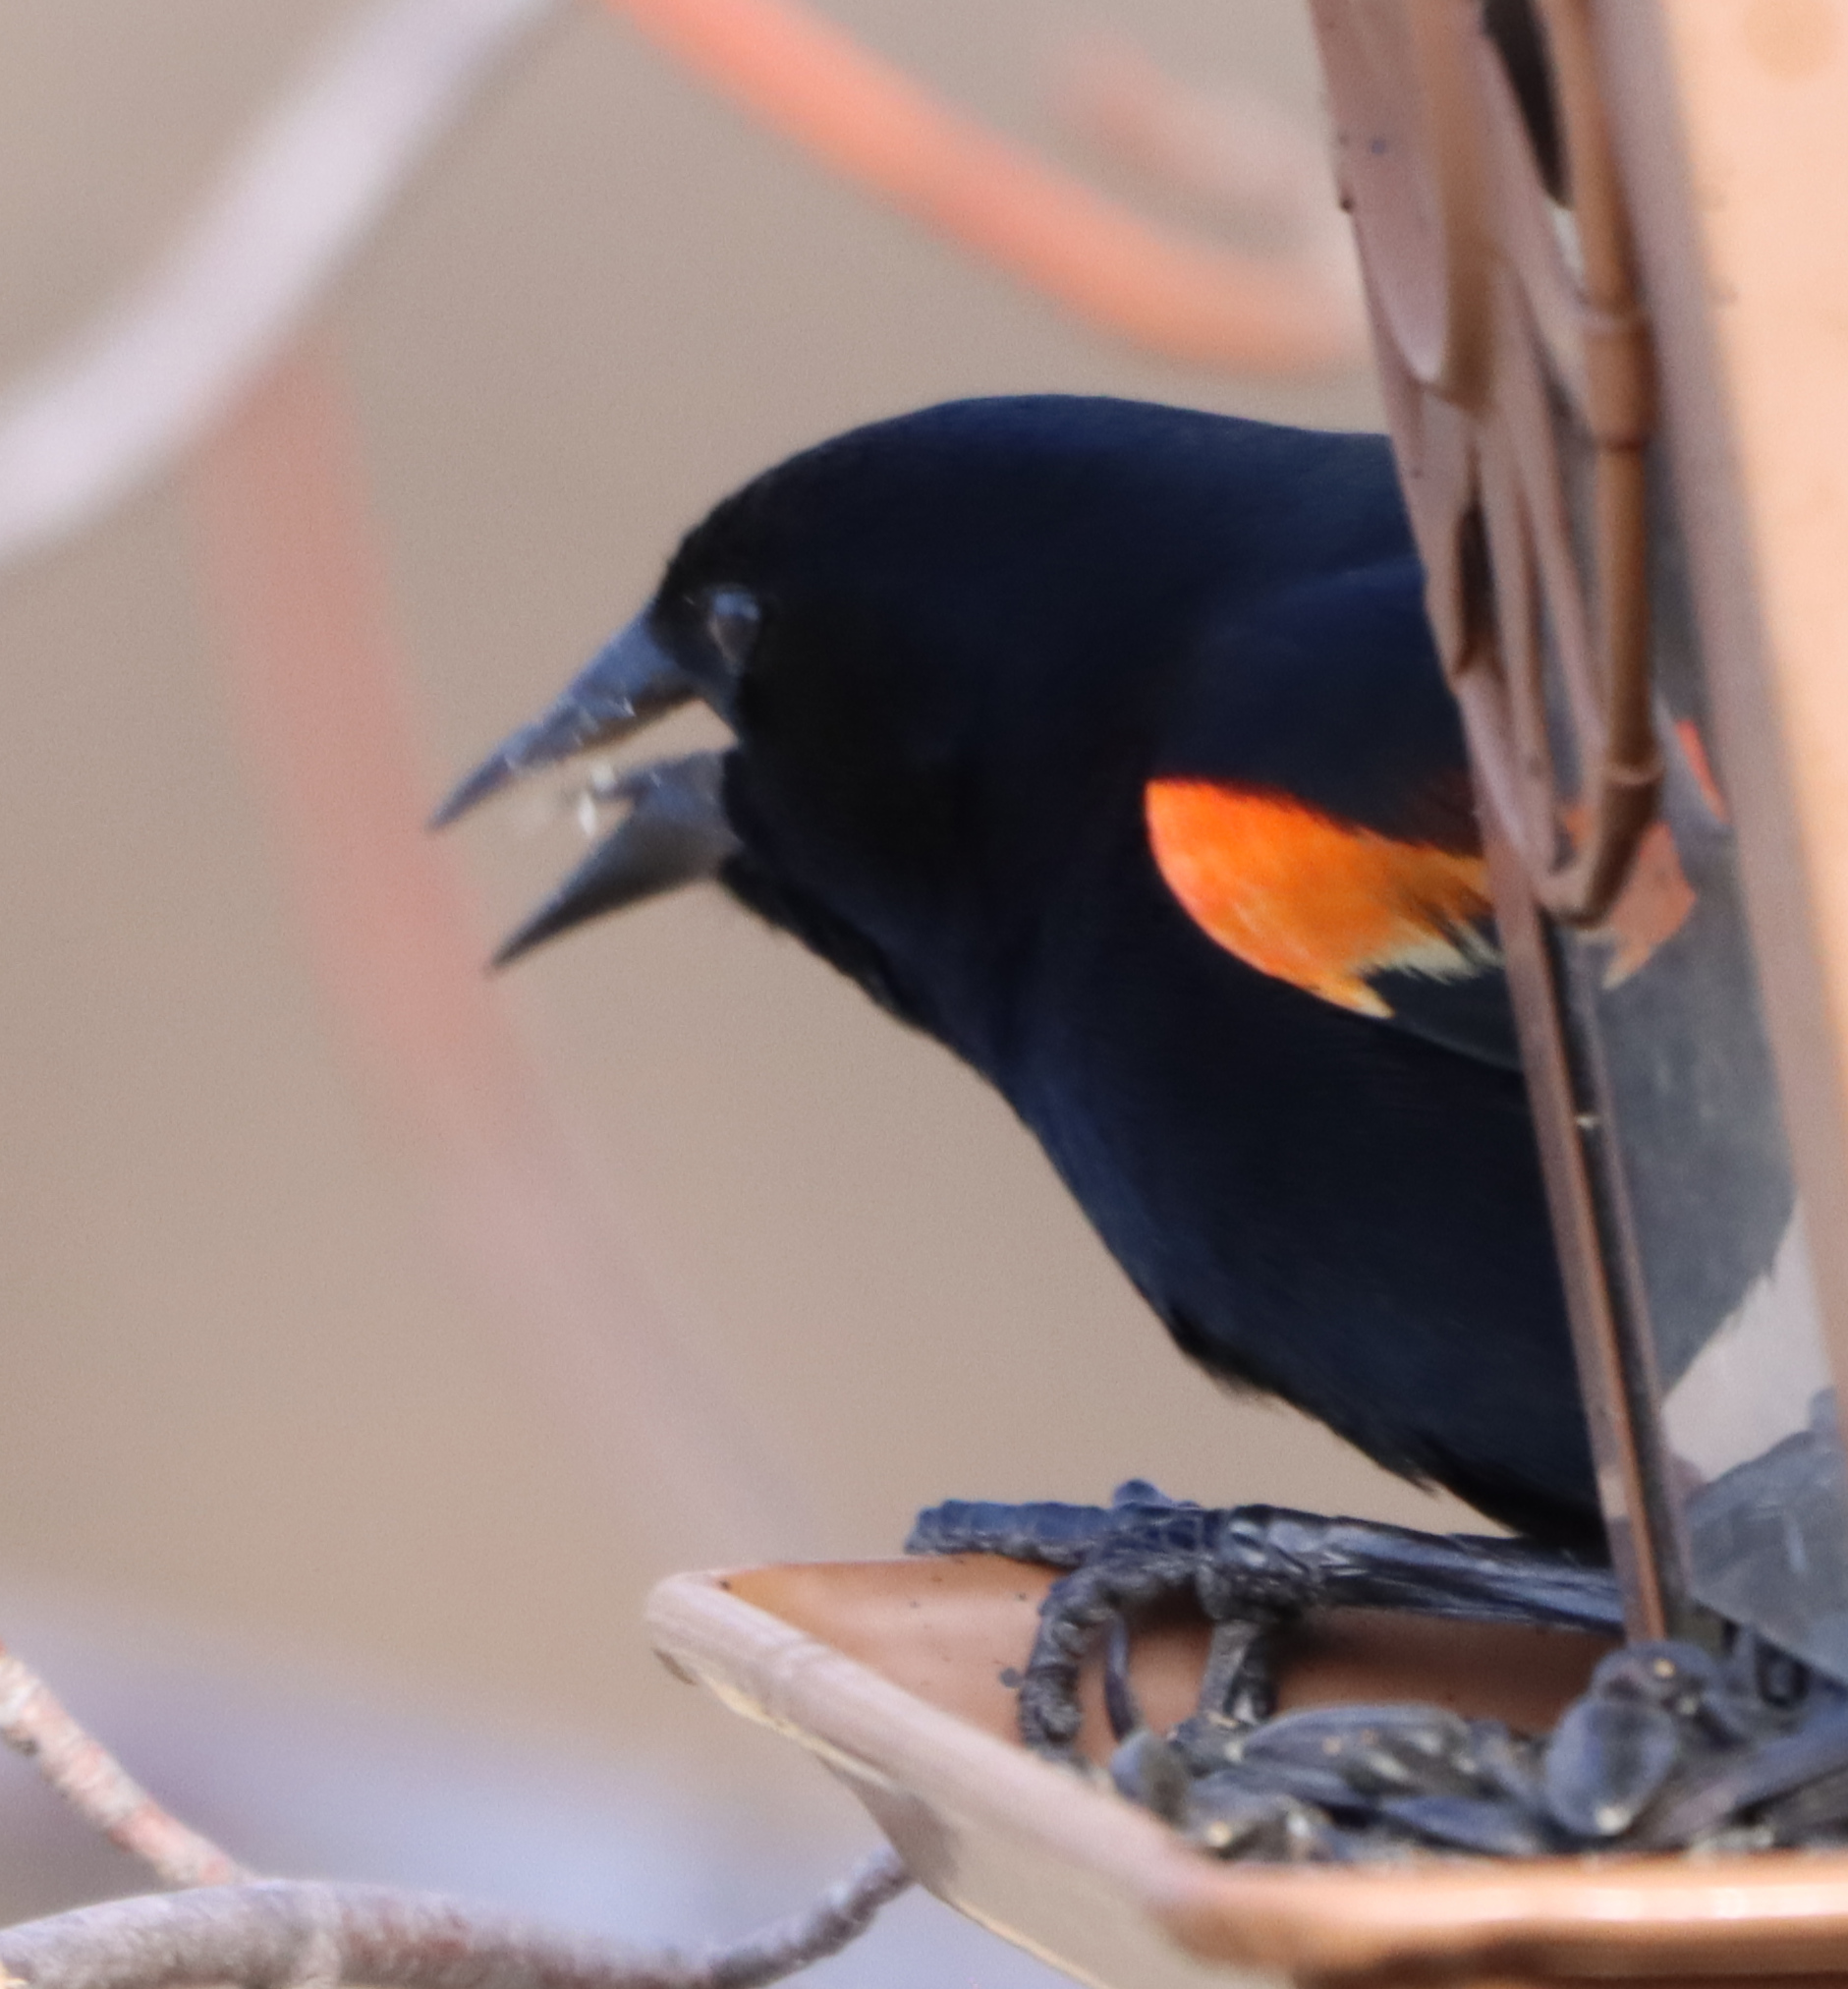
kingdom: Animalia
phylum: Chordata
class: Aves
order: Passeriformes
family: Icteridae
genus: Agelaius
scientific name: Agelaius phoeniceus
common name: Red-winged blackbird
